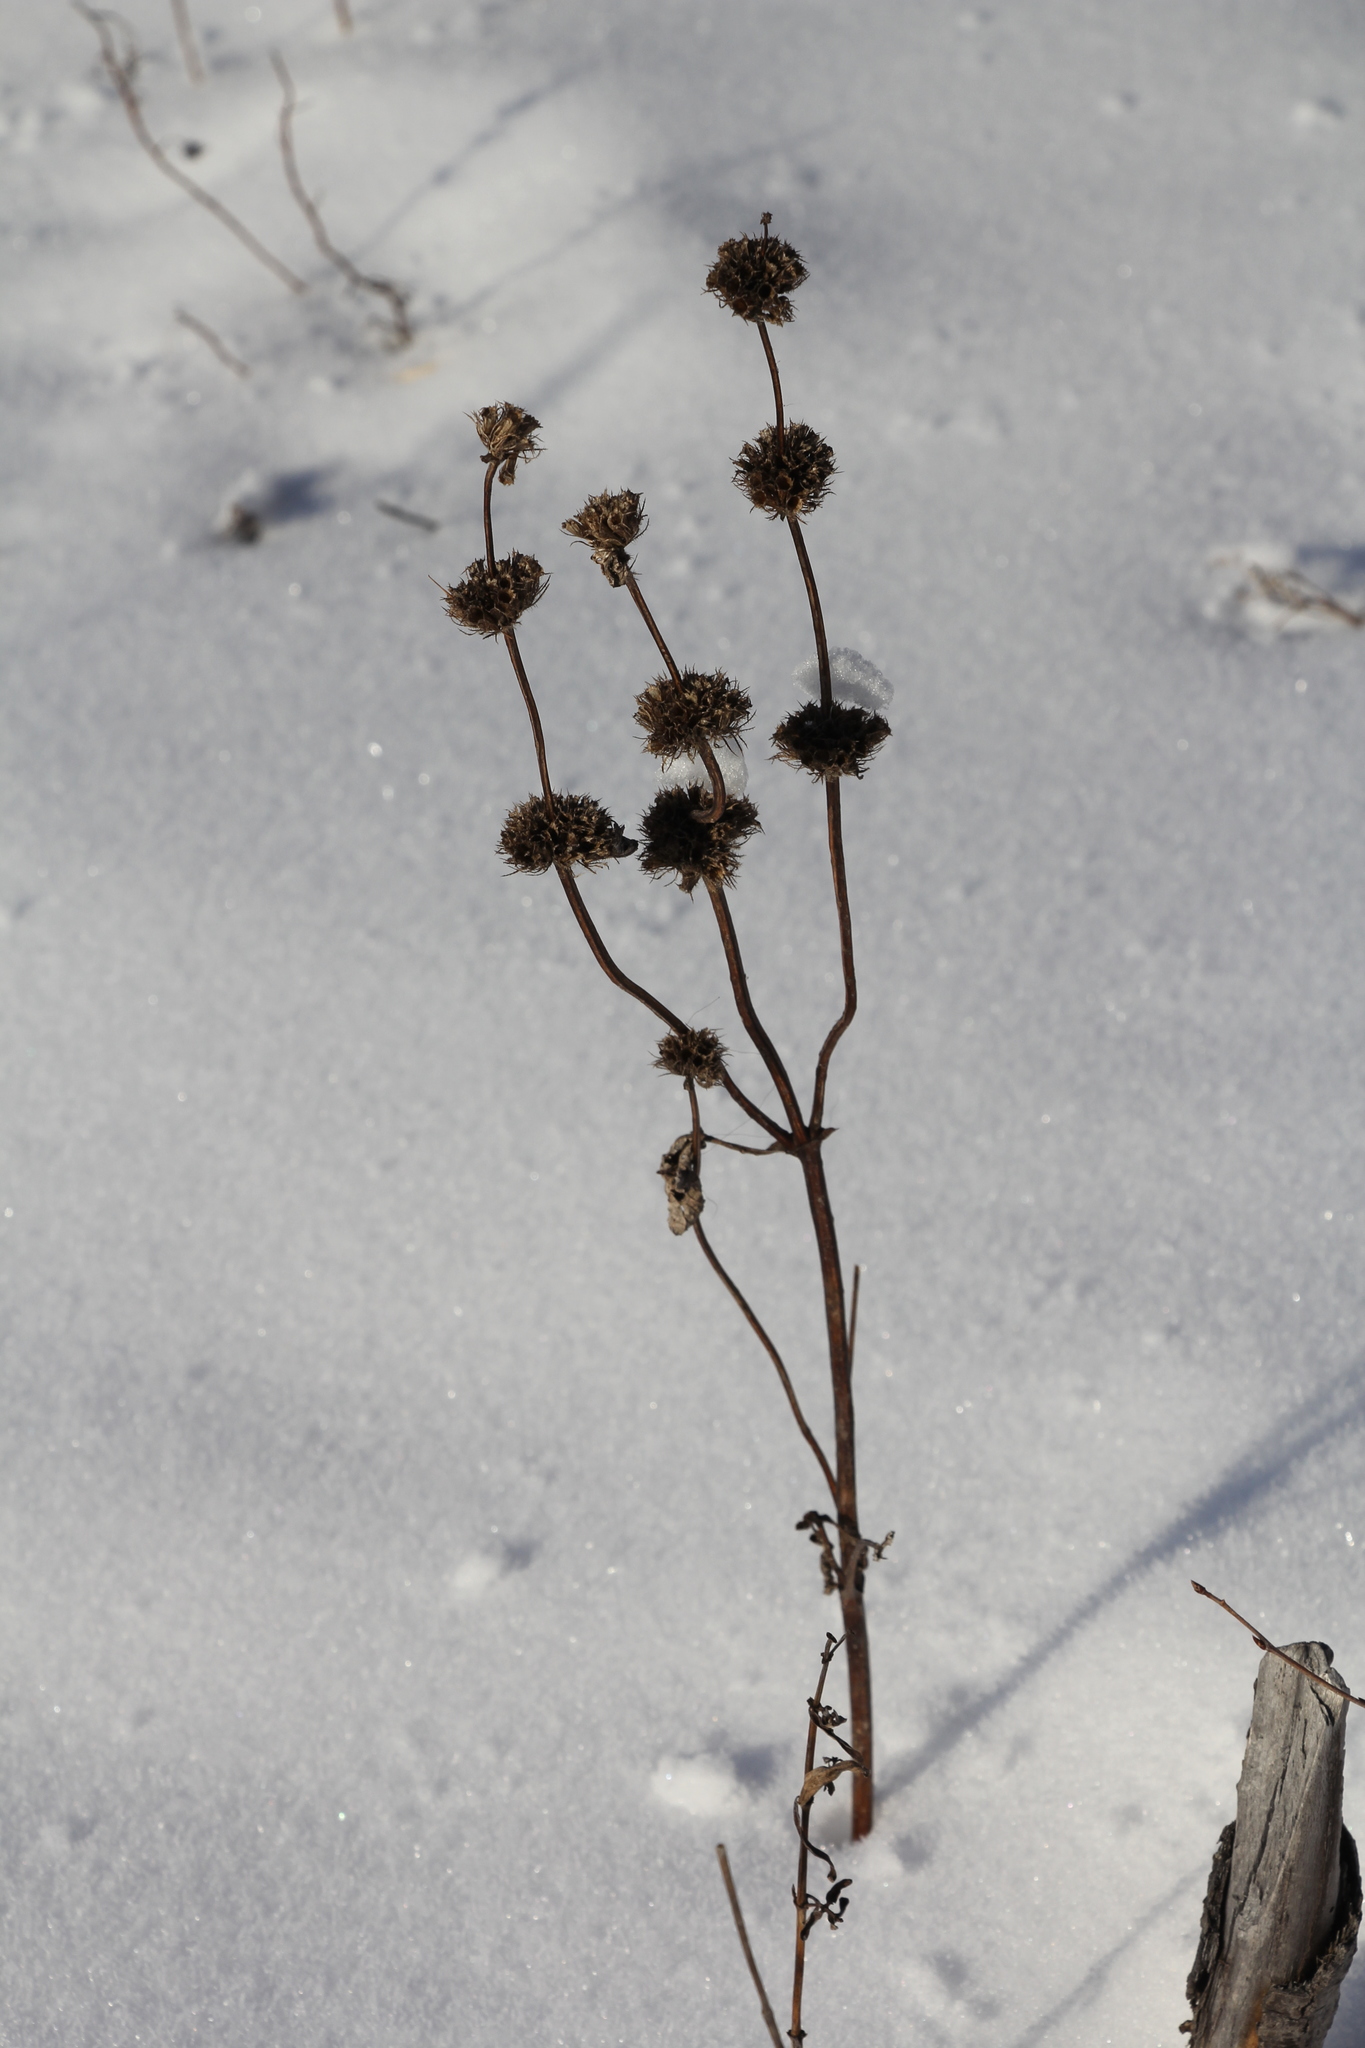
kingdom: Plantae
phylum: Tracheophyta
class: Magnoliopsida
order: Lamiales
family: Lamiaceae
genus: Phlomoides
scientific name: Phlomoides tuberosa
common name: Tuberous jerusalem sage
